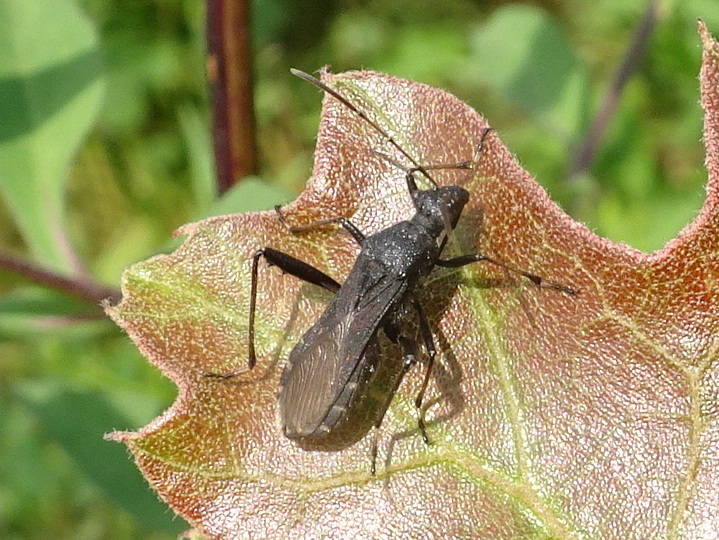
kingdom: Animalia
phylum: Arthropoda
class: Insecta
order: Hemiptera
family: Alydidae
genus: Alydus
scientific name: Alydus eurinus
